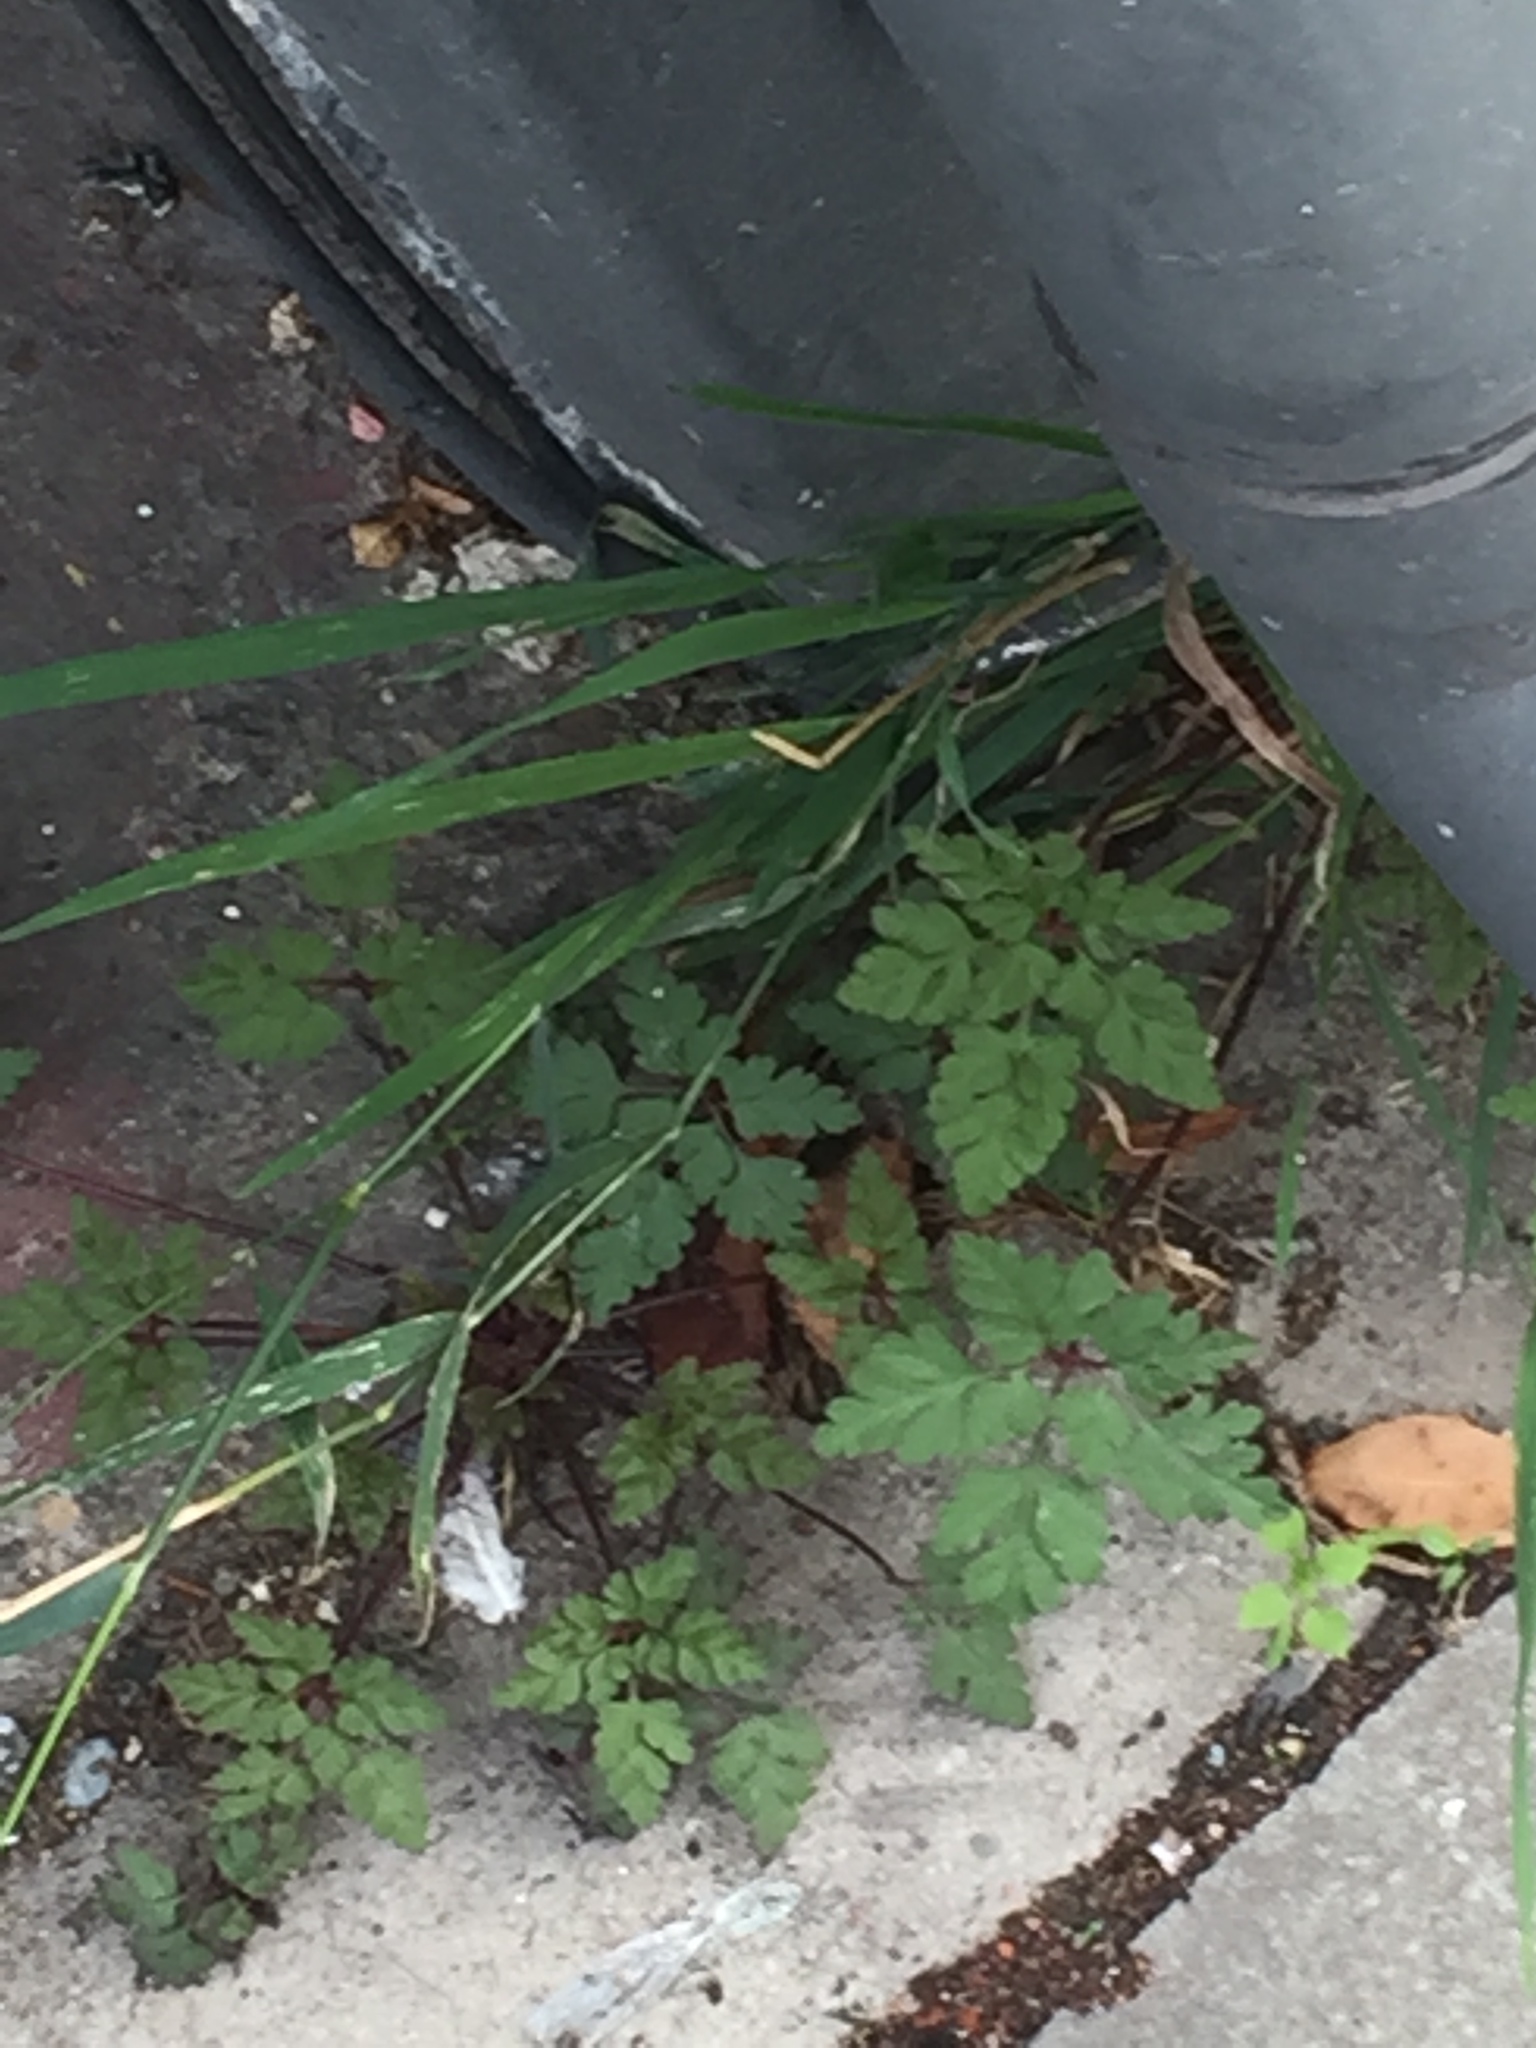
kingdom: Plantae
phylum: Tracheophyta
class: Magnoliopsida
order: Geraniales
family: Geraniaceae
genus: Geranium
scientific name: Geranium robertianum
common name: Herb-robert
